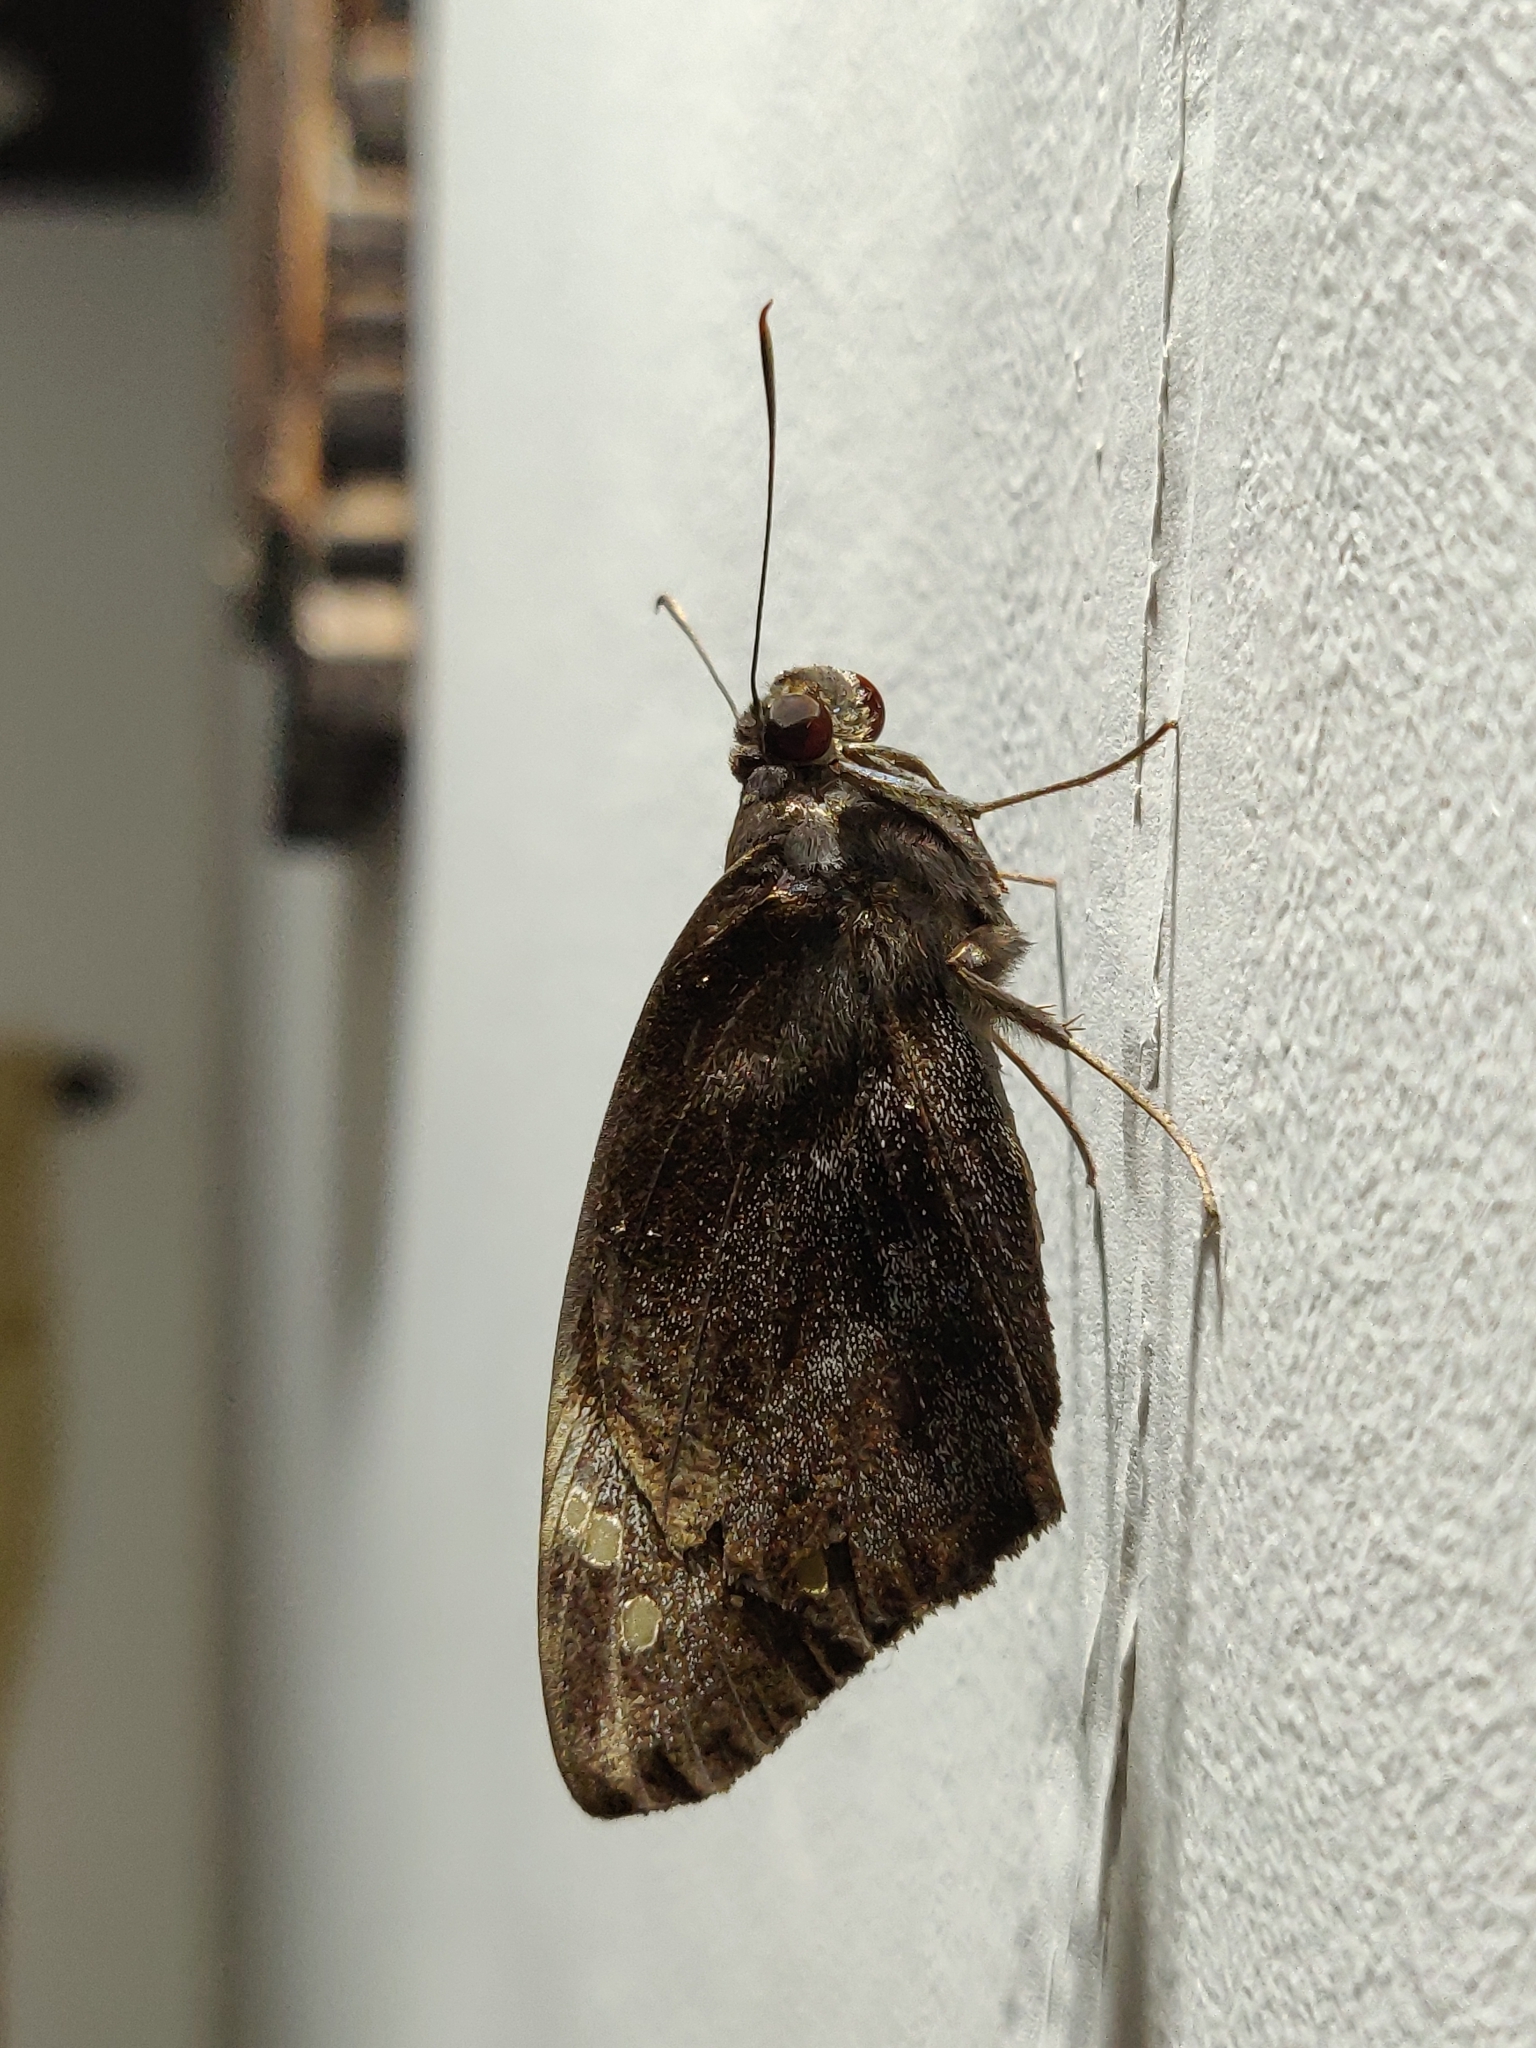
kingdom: Animalia
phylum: Arthropoda
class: Insecta
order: Lepidoptera
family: Hesperiidae
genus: Gangara
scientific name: Gangara thyrsis
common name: Giant redeye
